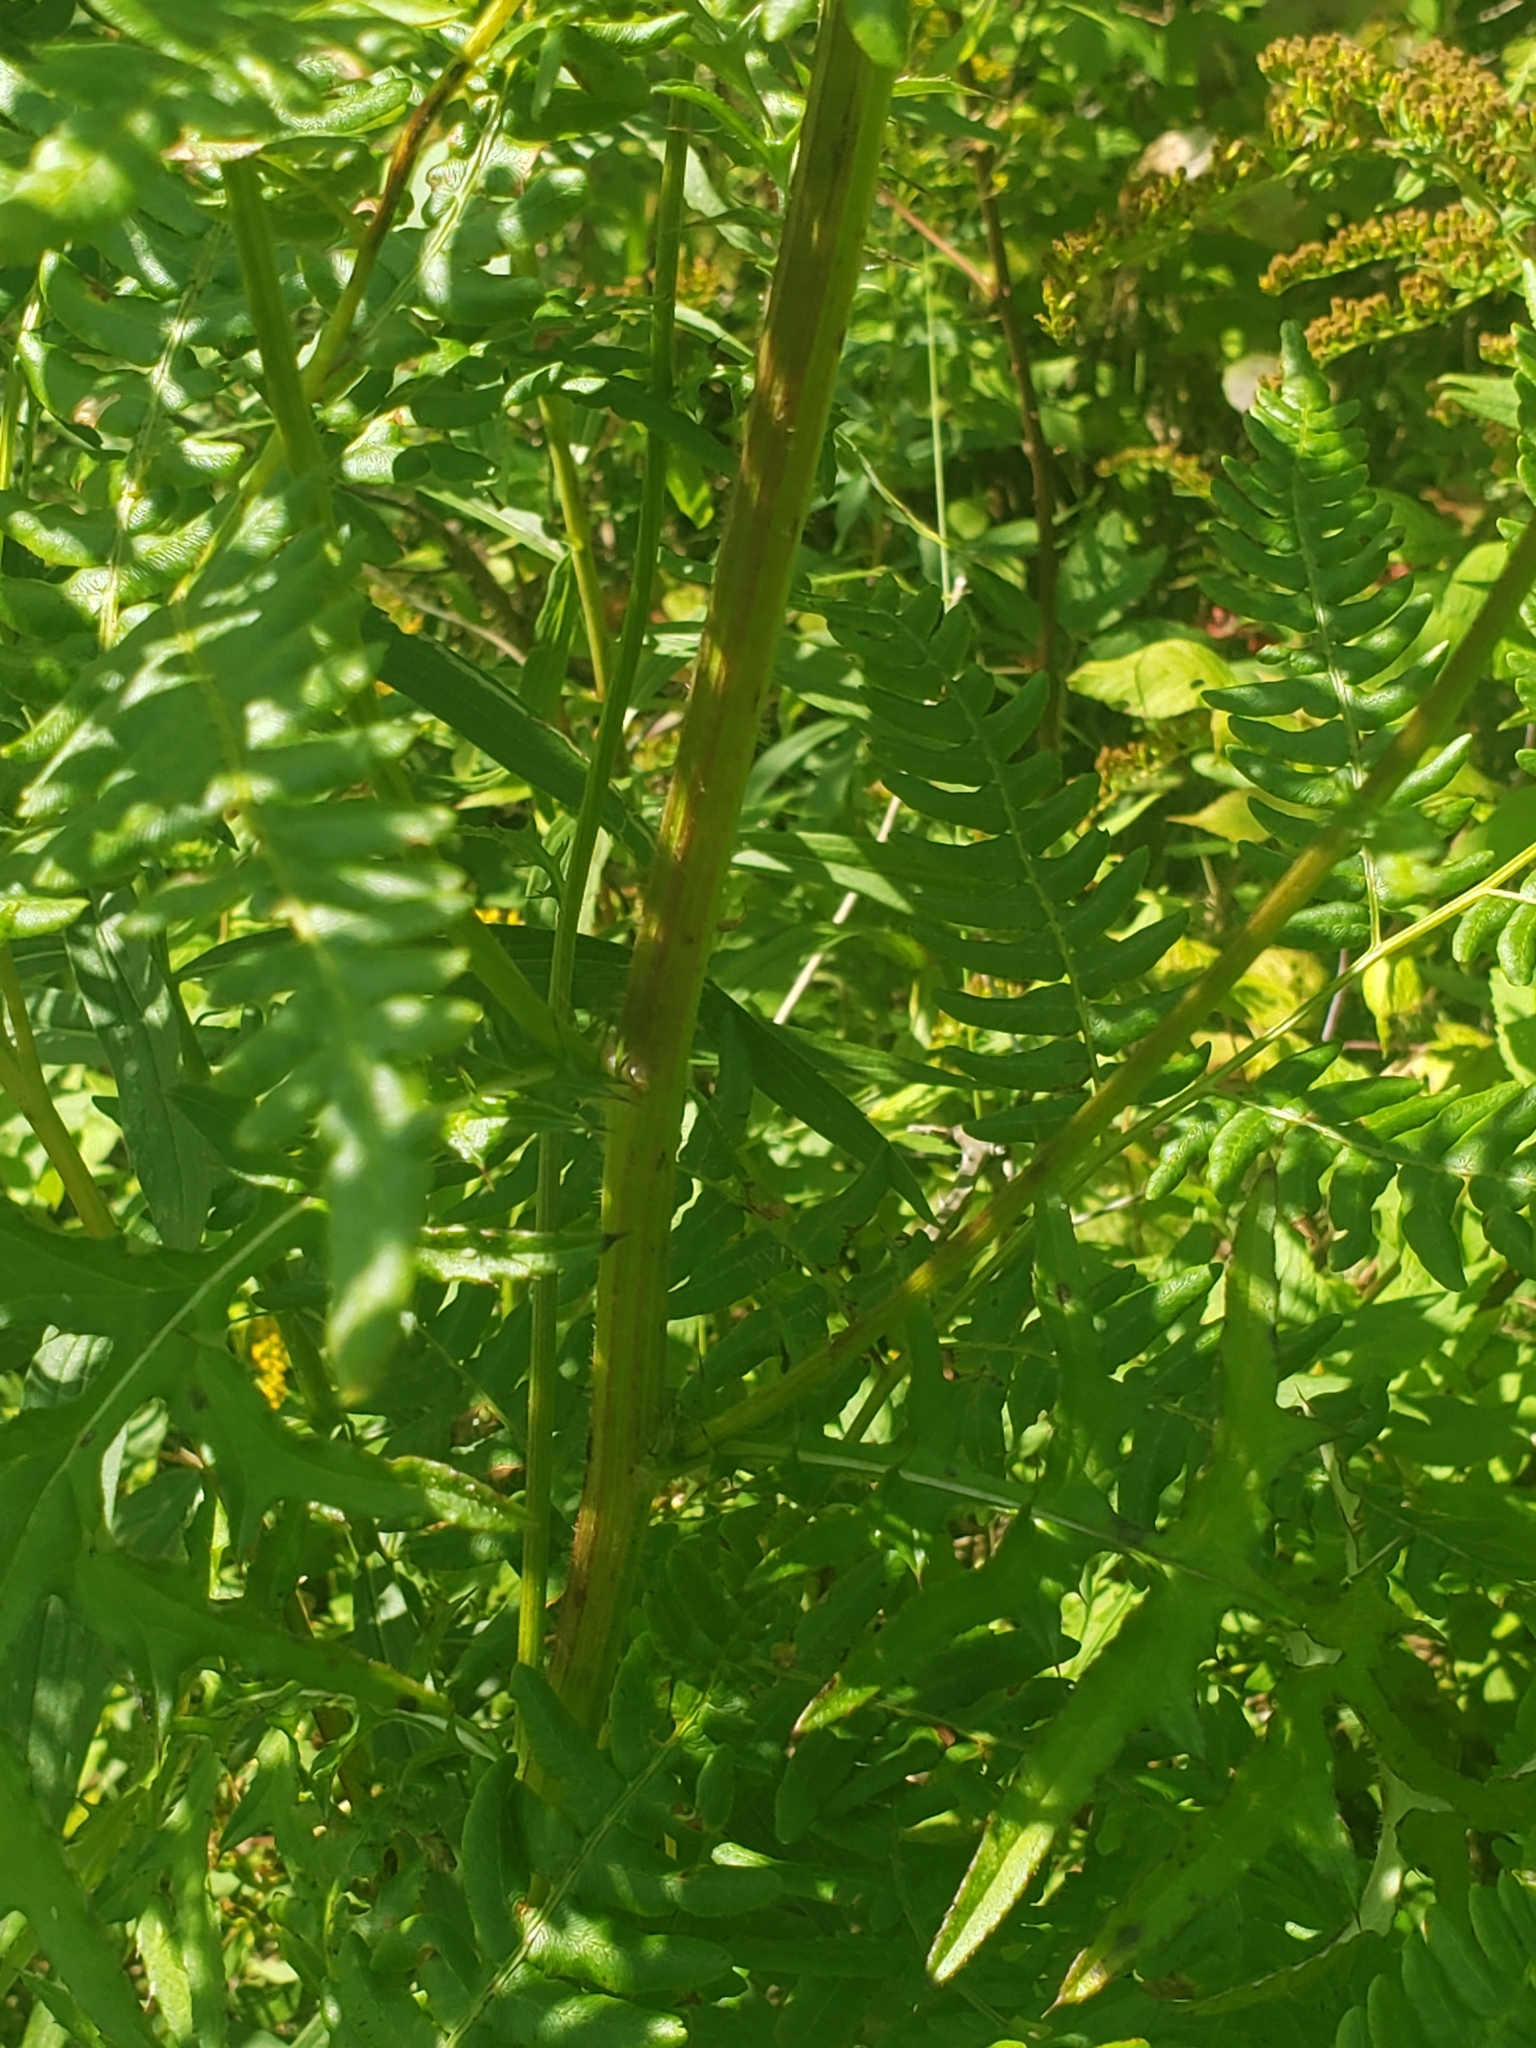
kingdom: Plantae
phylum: Tracheophyta
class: Magnoliopsida
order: Asterales
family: Asteraceae
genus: Cirsium
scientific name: Cirsium muticum
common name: Dunce-nettle
